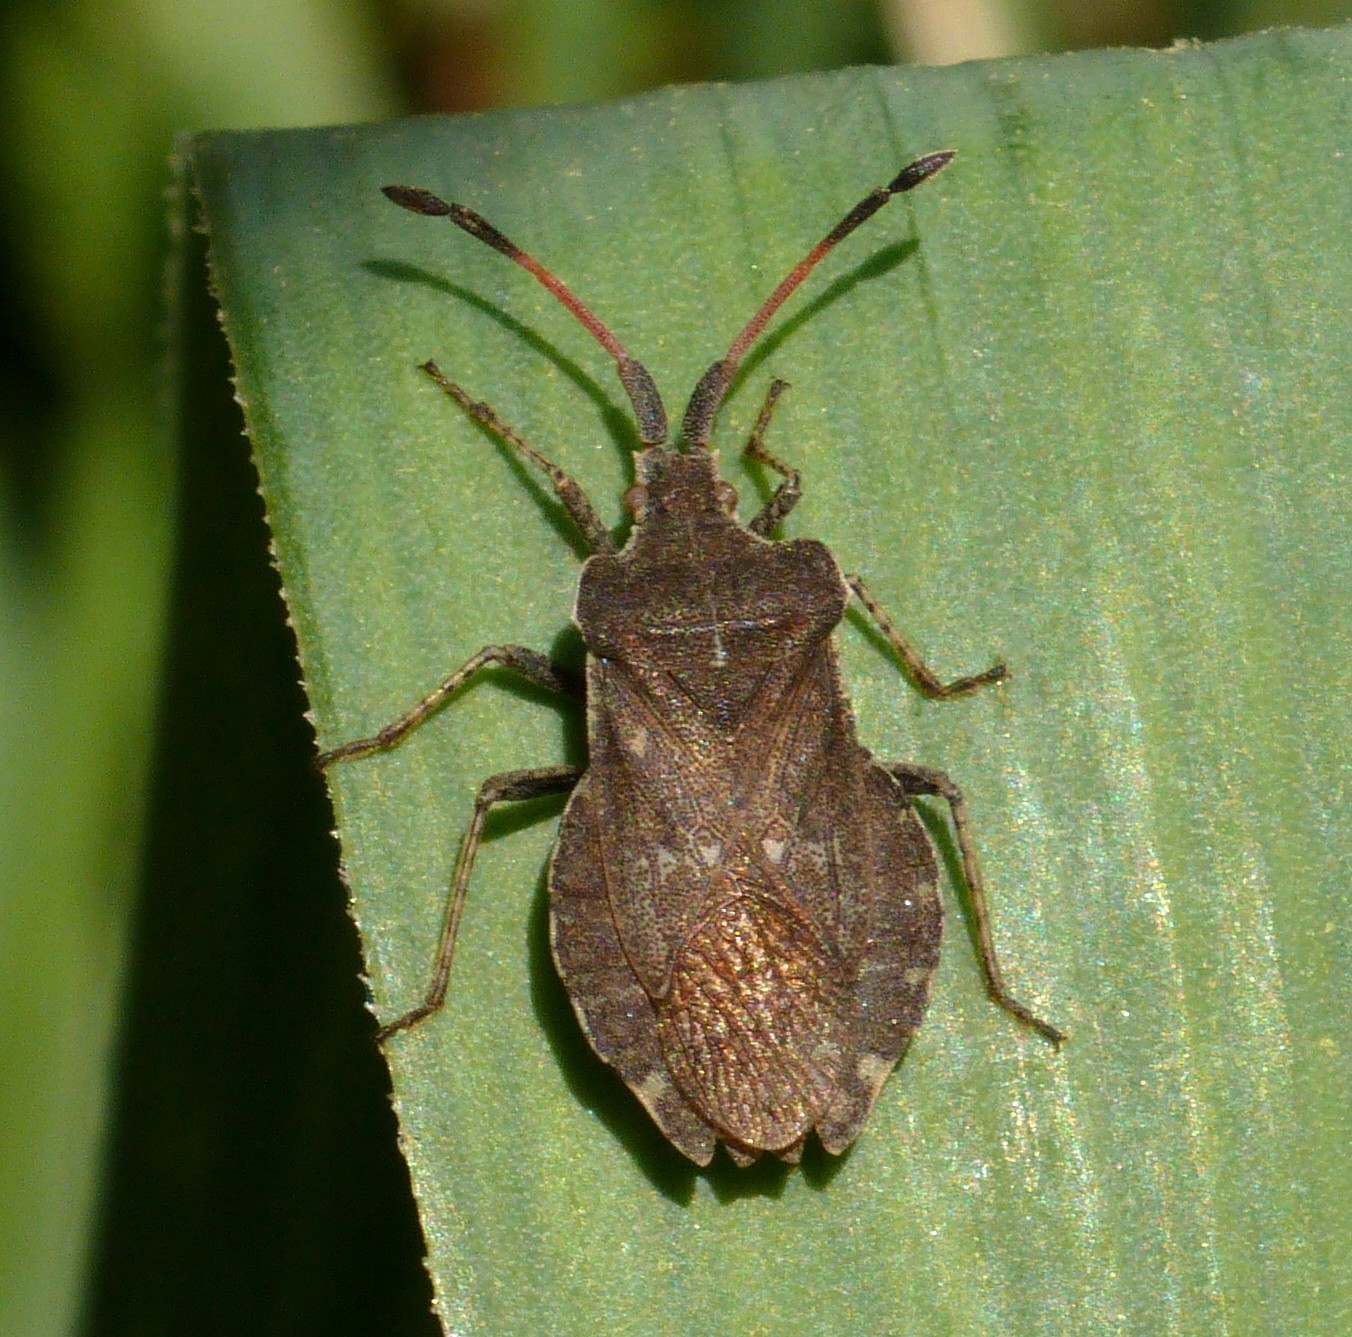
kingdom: Animalia
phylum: Arthropoda
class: Insecta
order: Hemiptera
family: Coreidae
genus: Enoplops
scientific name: Enoplops scapha
